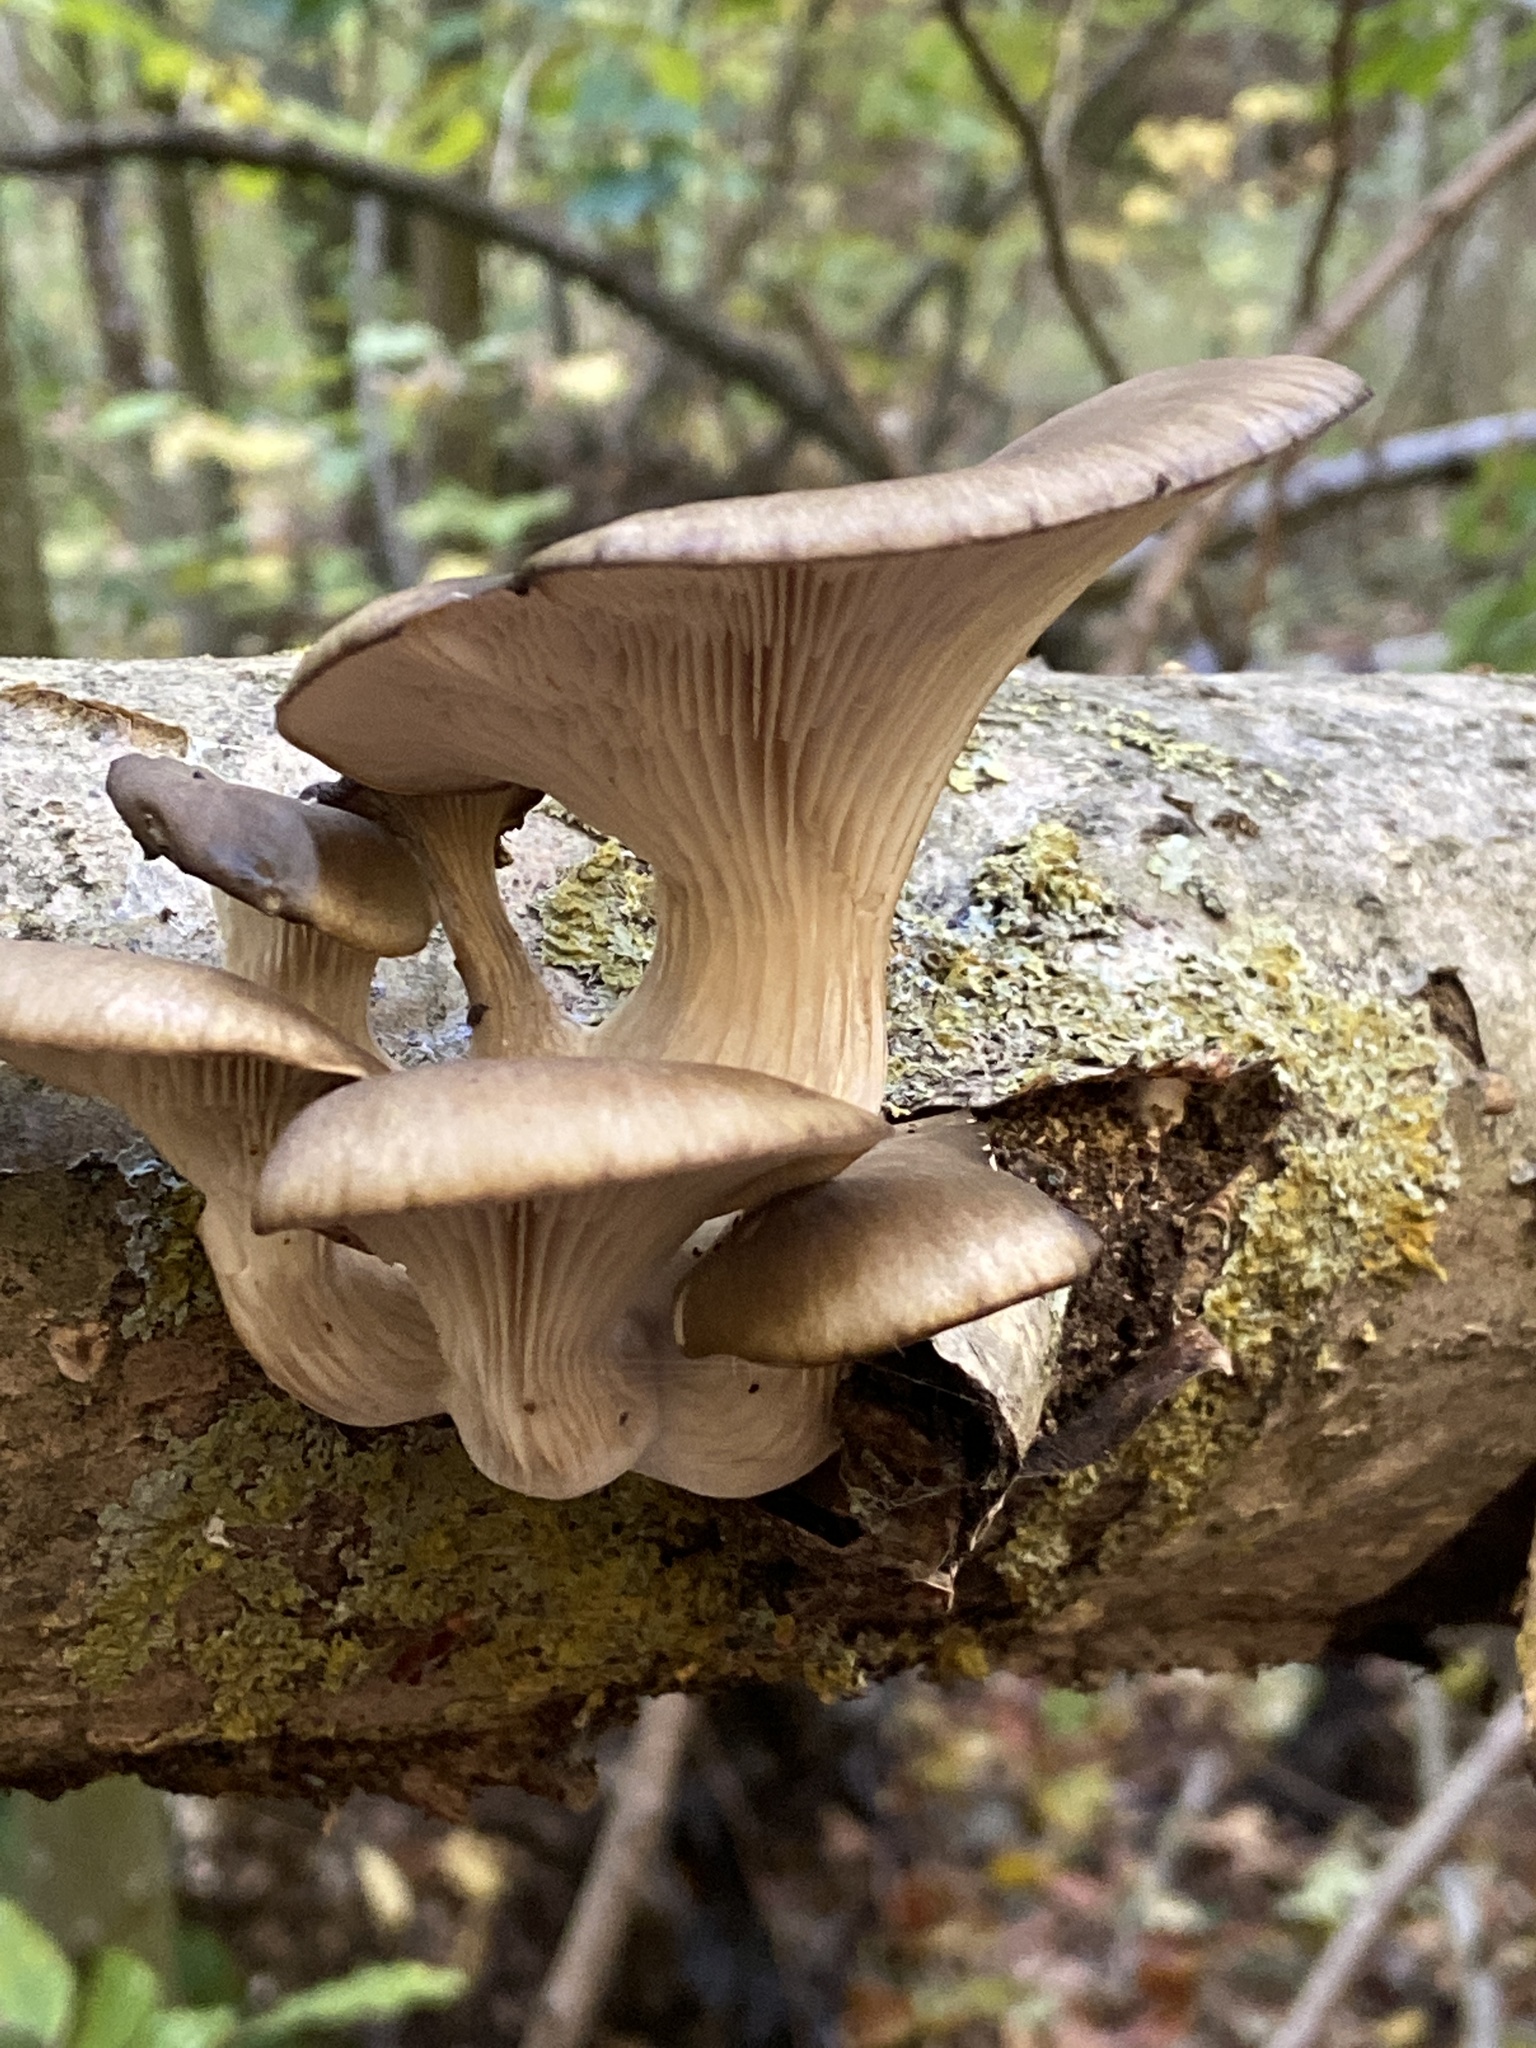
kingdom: Fungi
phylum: Basidiomycota
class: Agaricomycetes
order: Agaricales
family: Pleurotaceae
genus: Pleurotus
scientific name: Pleurotus ostreatus
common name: Oyster mushroom
